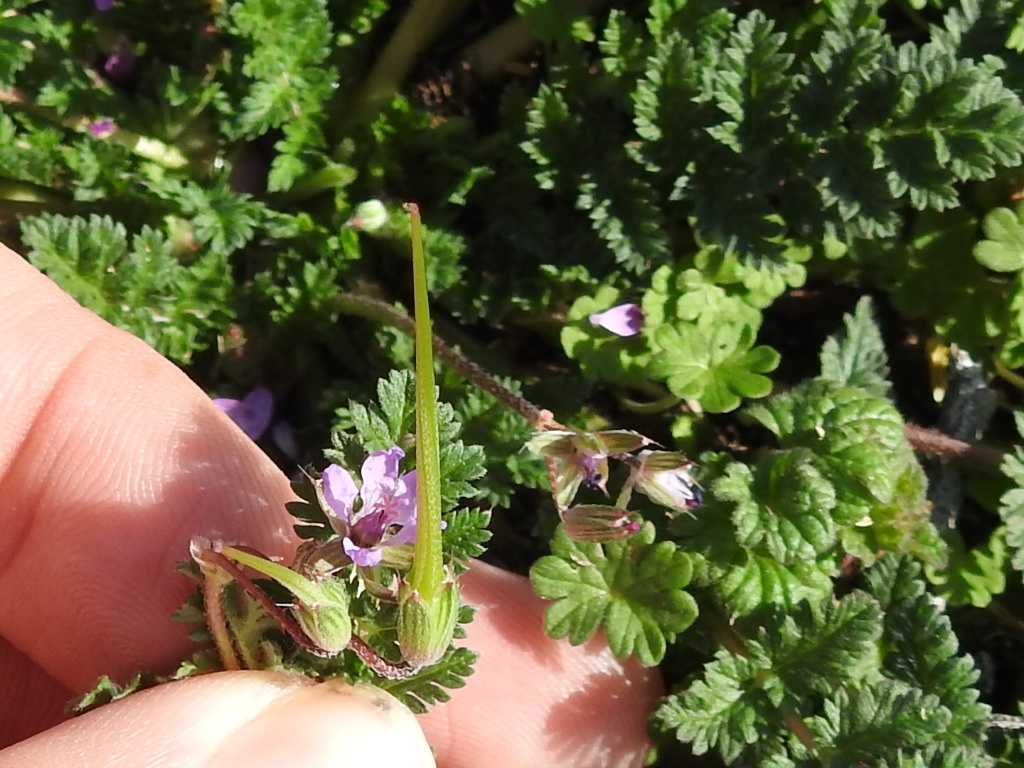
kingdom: Plantae
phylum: Tracheophyta
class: Magnoliopsida
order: Geraniales
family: Geraniaceae
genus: Erodium
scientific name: Erodium cicutarium
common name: Common stork's-bill
